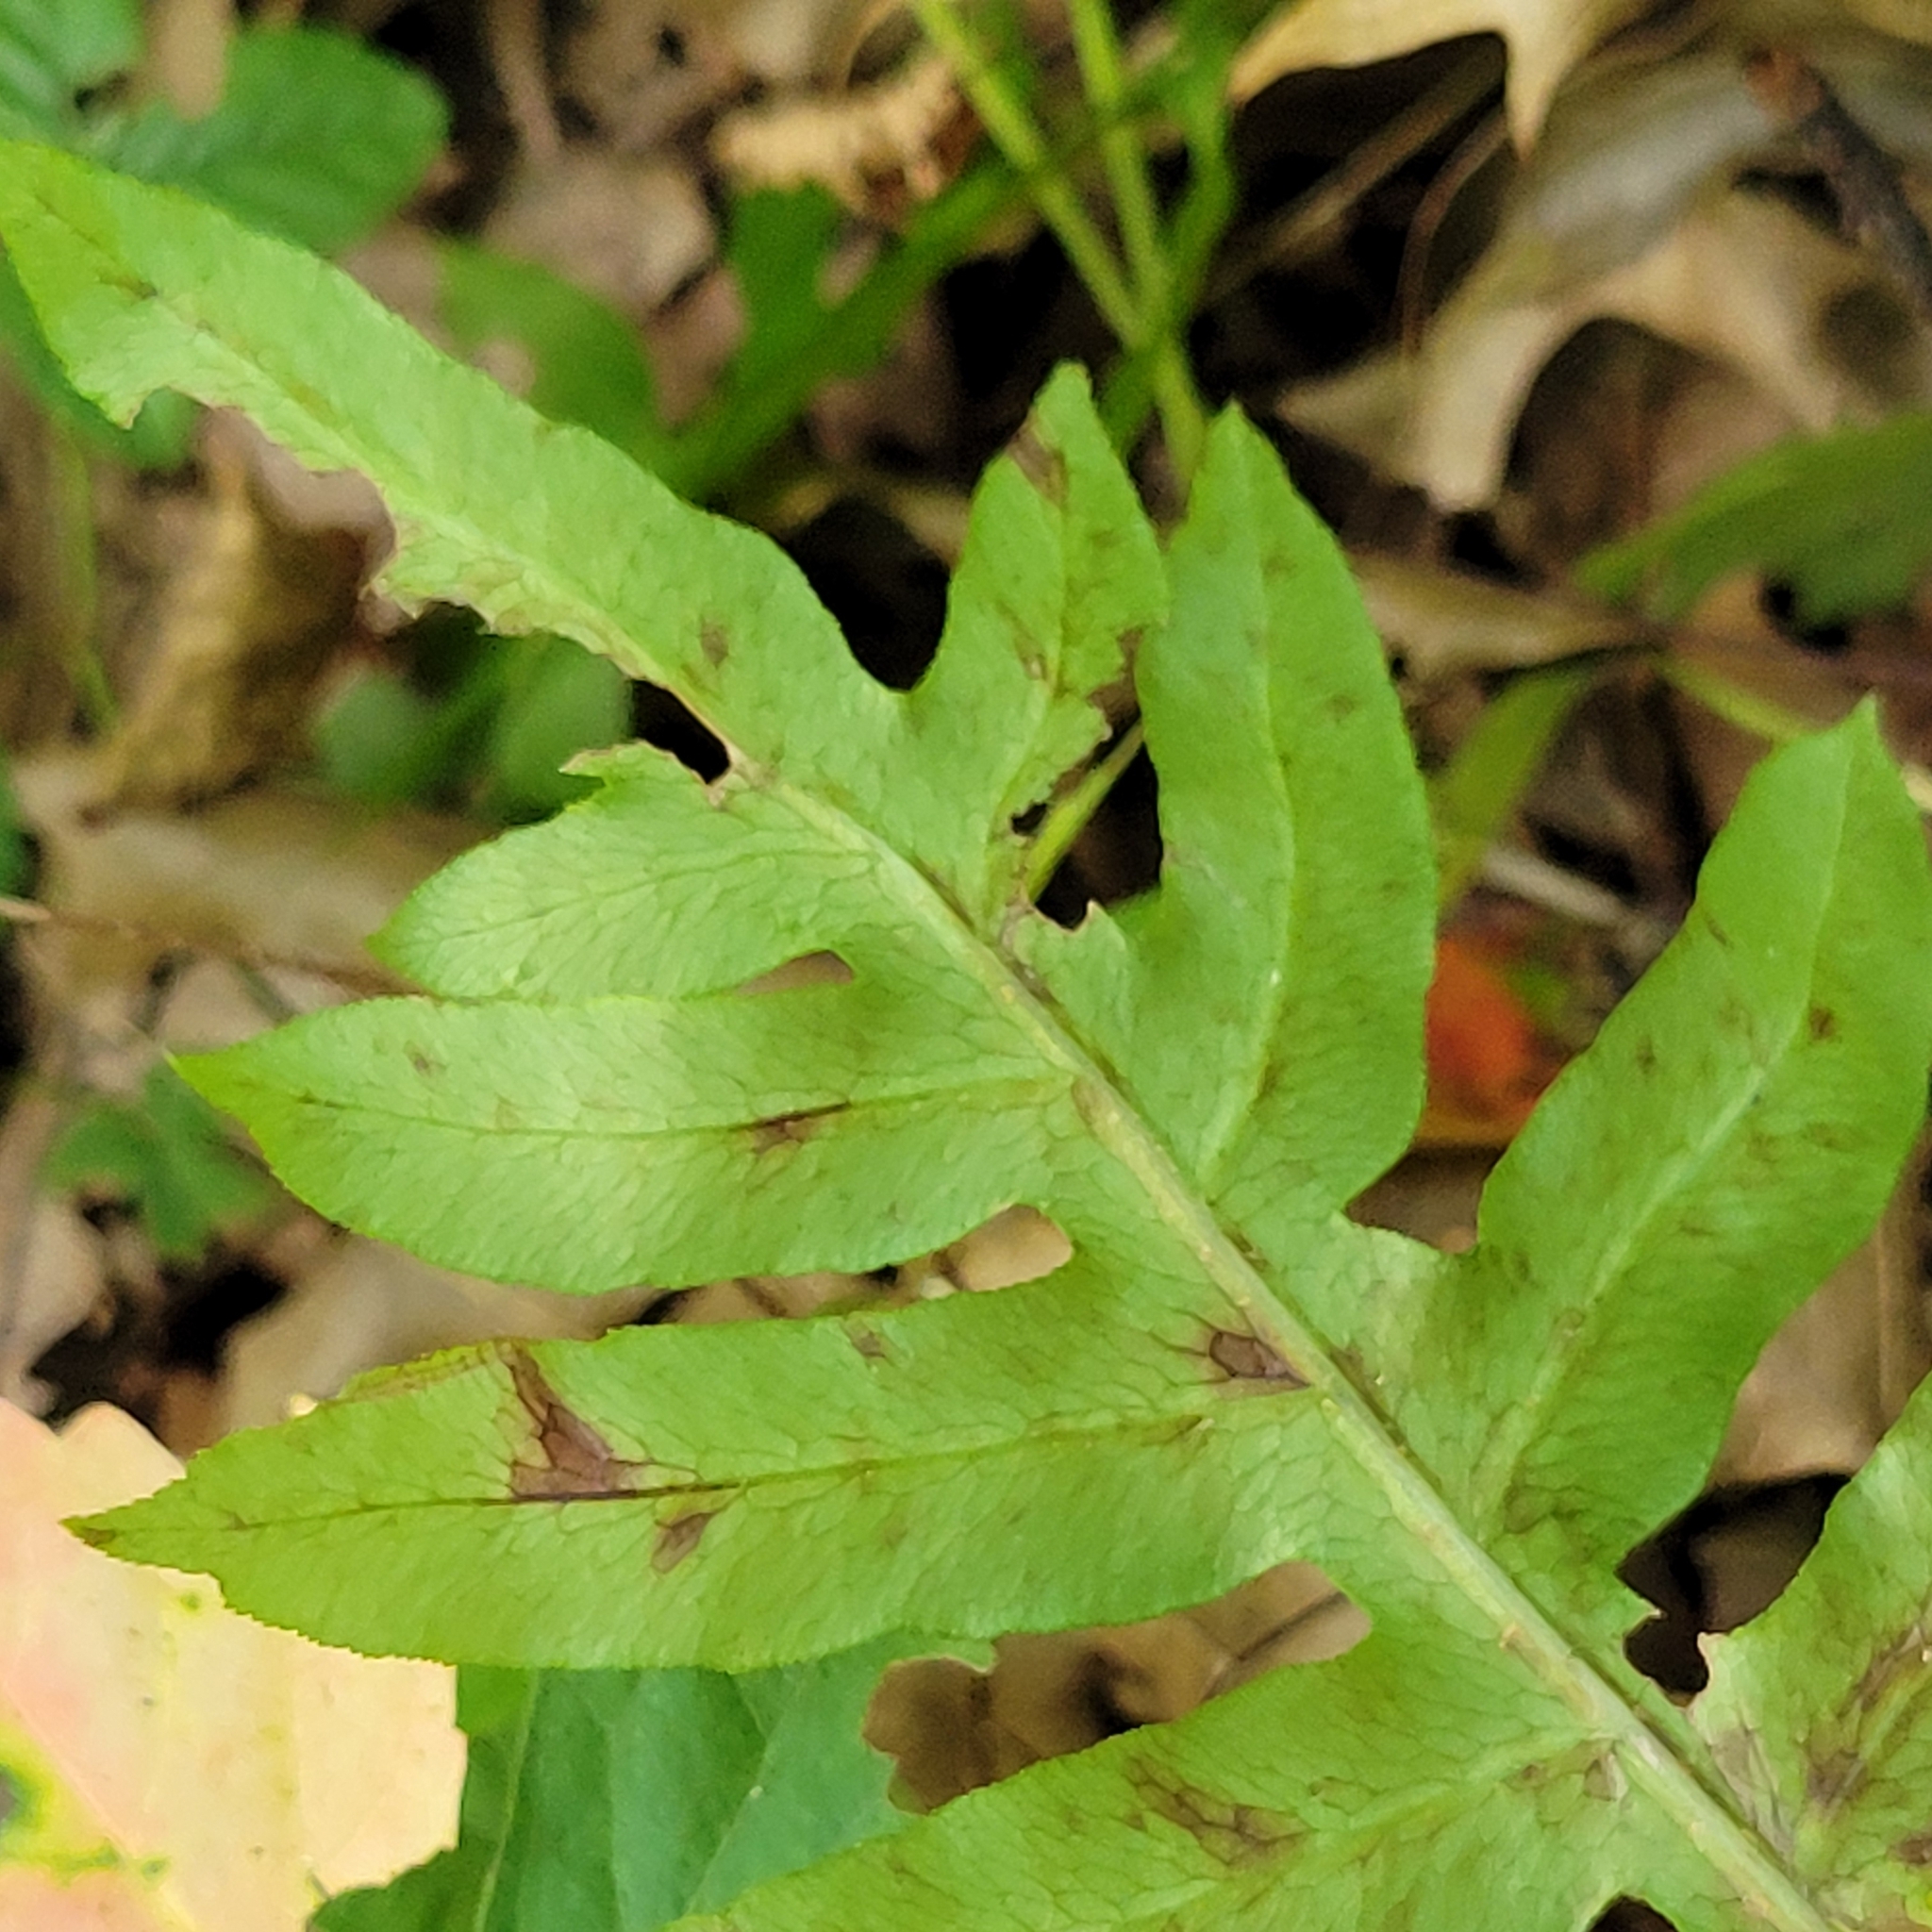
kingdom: Plantae
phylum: Tracheophyta
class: Polypodiopsida
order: Polypodiales
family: Blechnaceae
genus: Lorinseria
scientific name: Lorinseria areolata
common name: Dwarf chain fern
